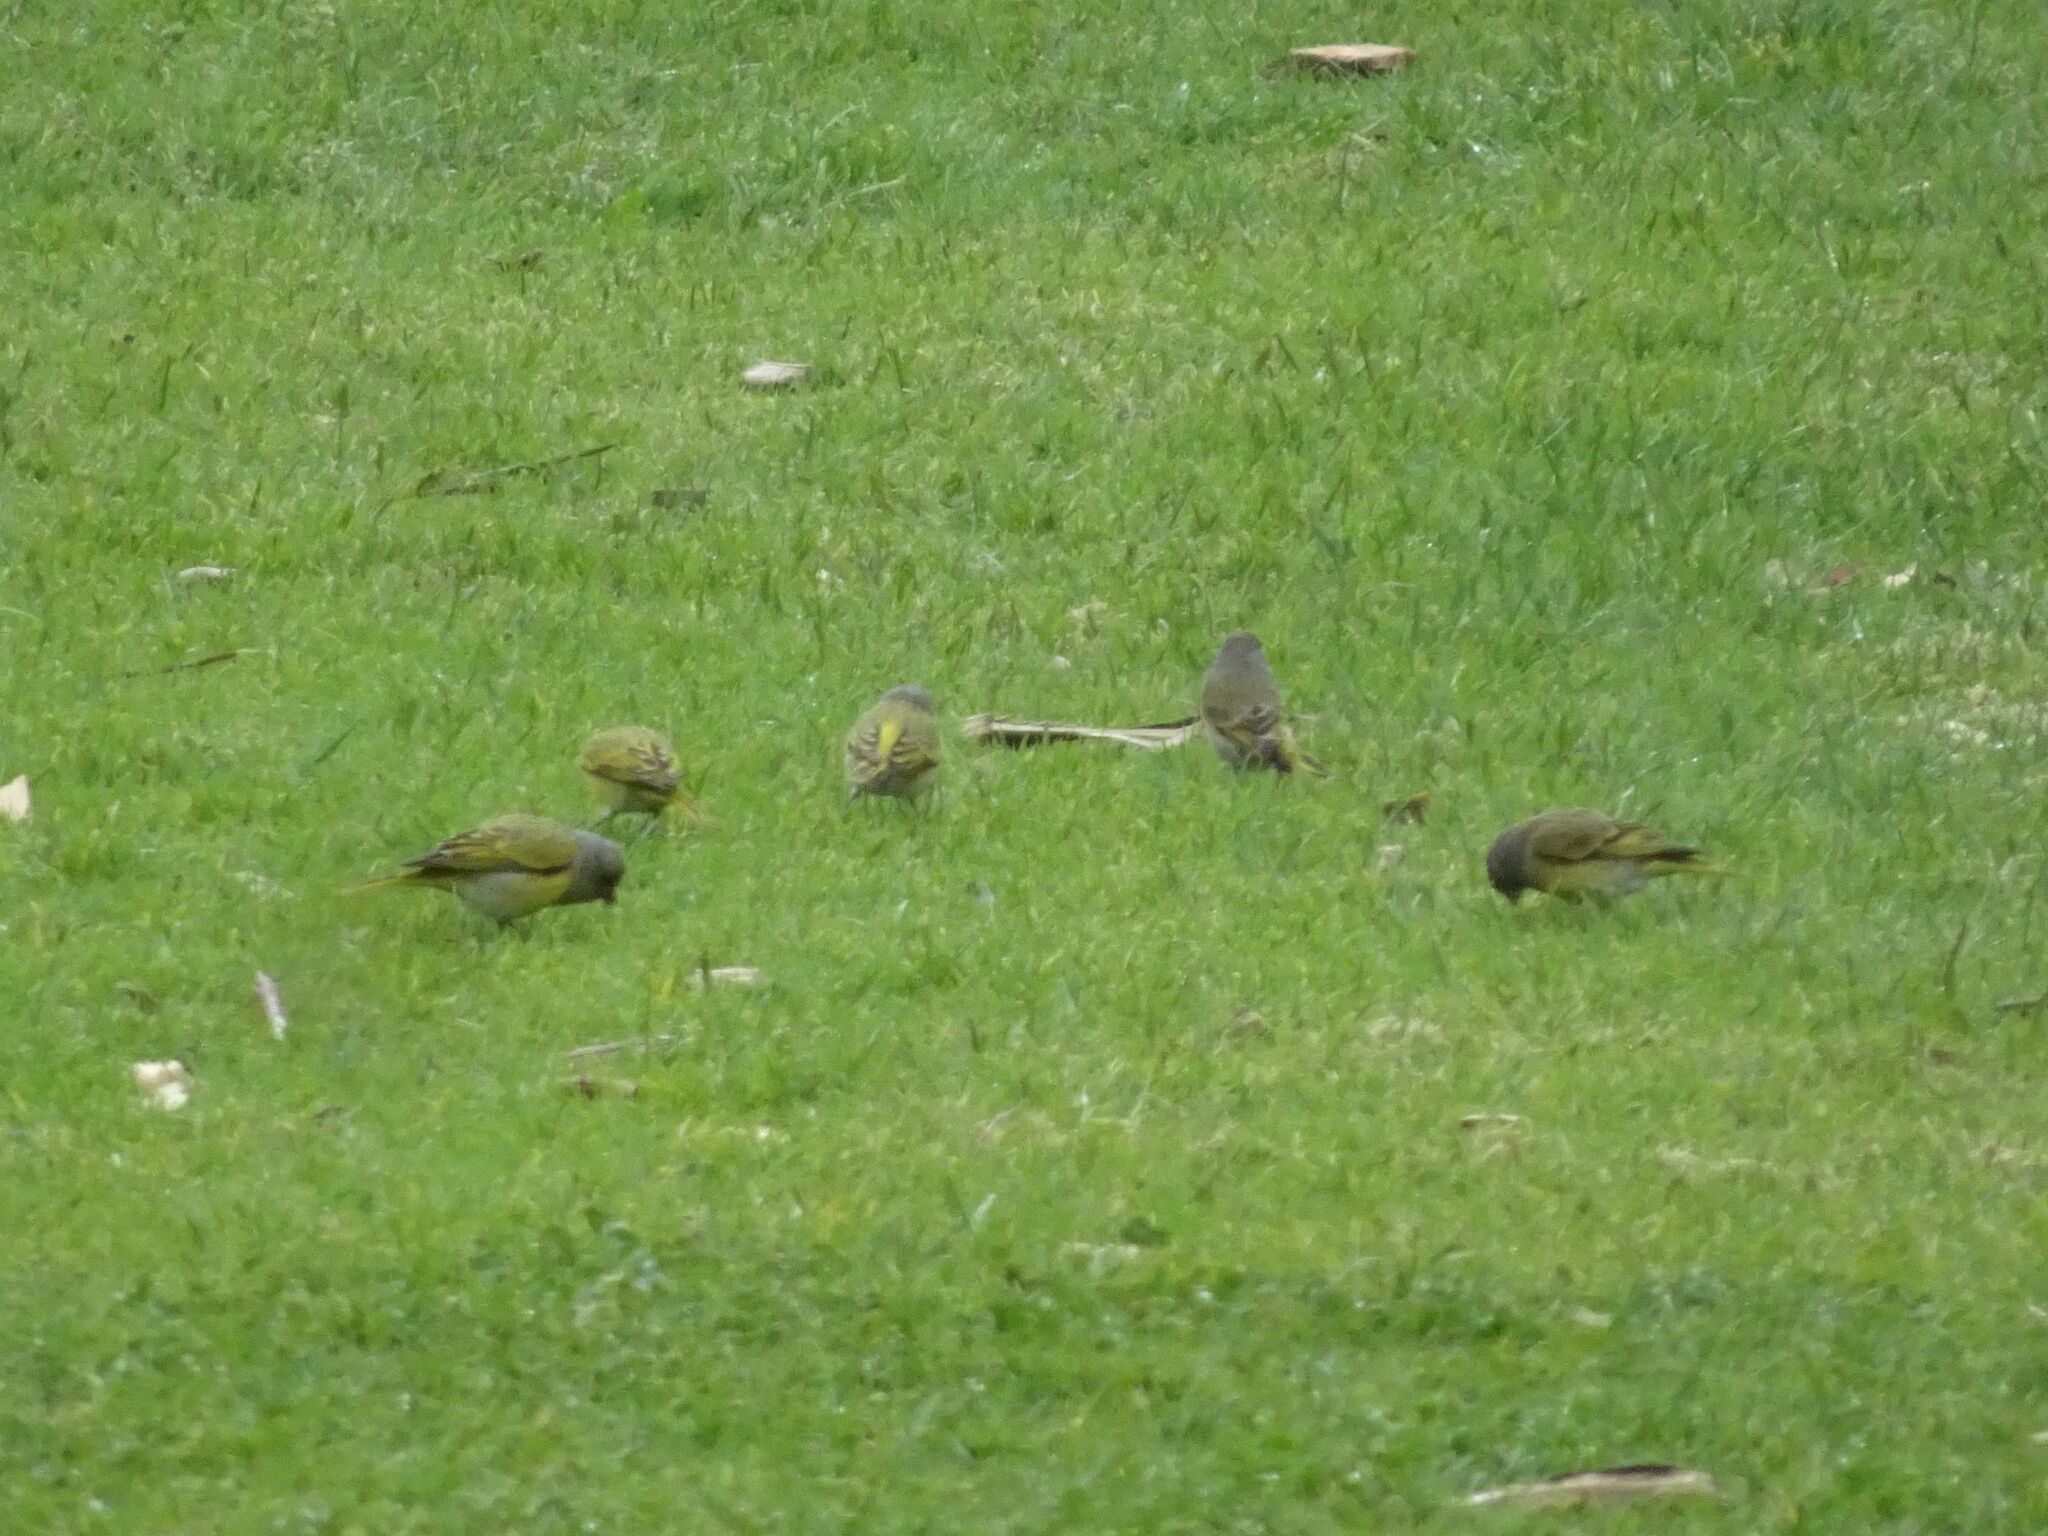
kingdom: Animalia
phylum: Chordata
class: Aves
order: Passeriformes
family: Fringillidae
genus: Serinus
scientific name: Serinus canicollis
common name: Cape canary
